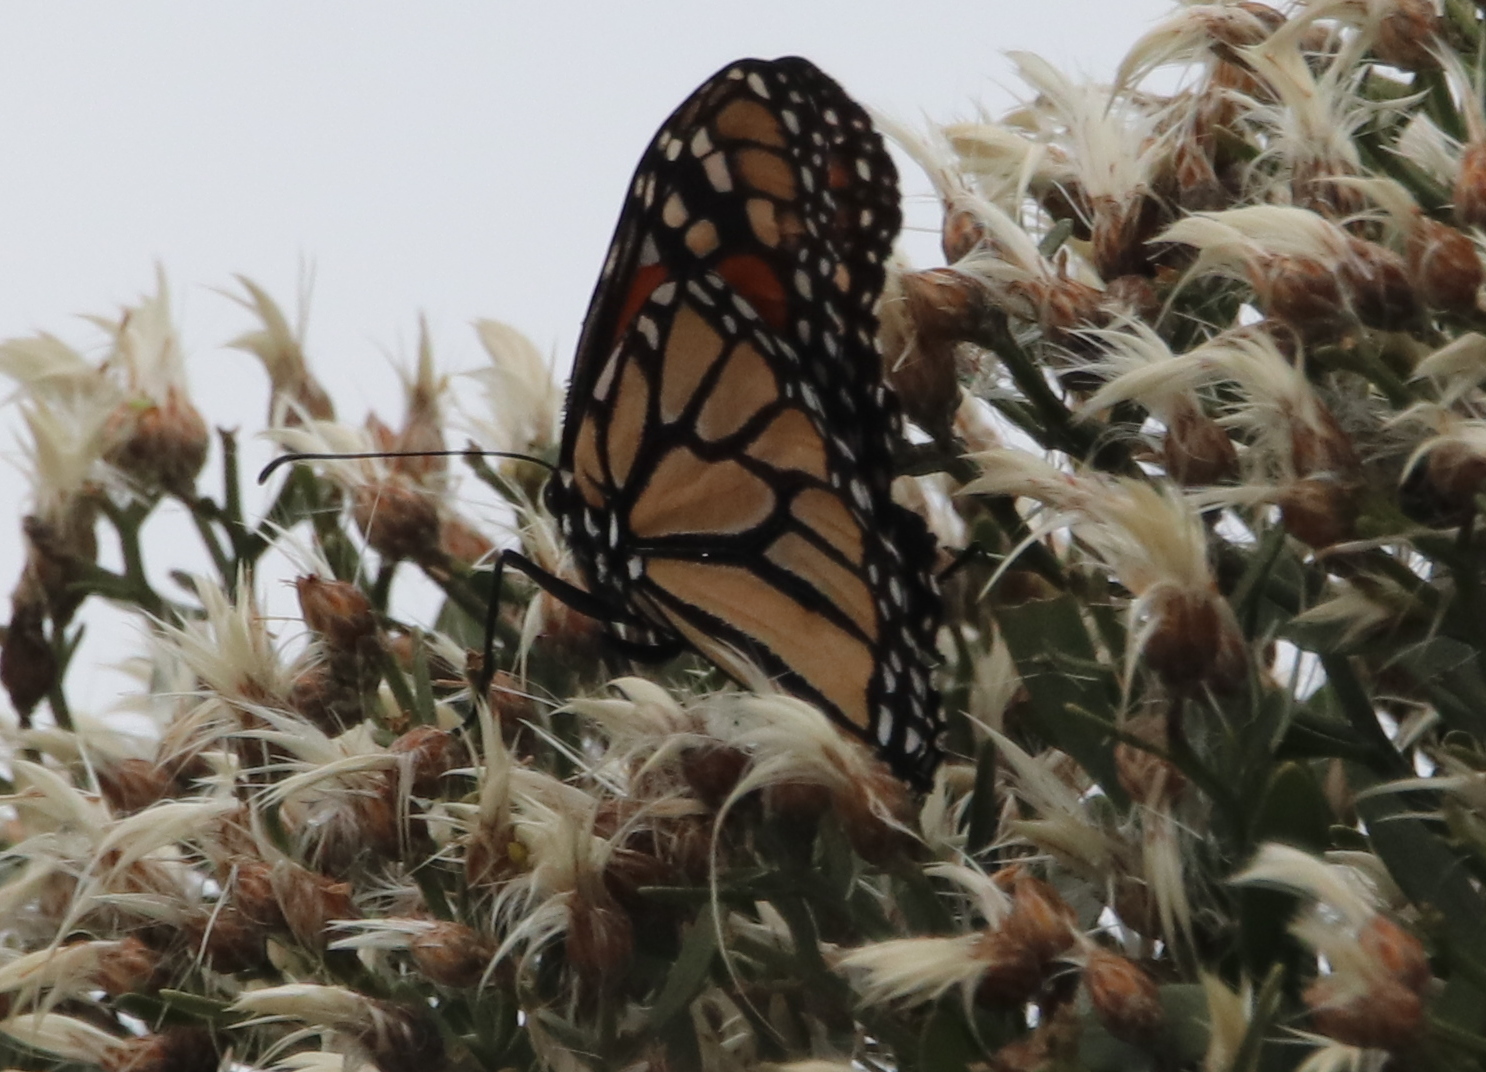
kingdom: Animalia
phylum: Arthropoda
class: Insecta
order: Lepidoptera
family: Nymphalidae
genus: Danaus
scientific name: Danaus plexippus
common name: Monarch
